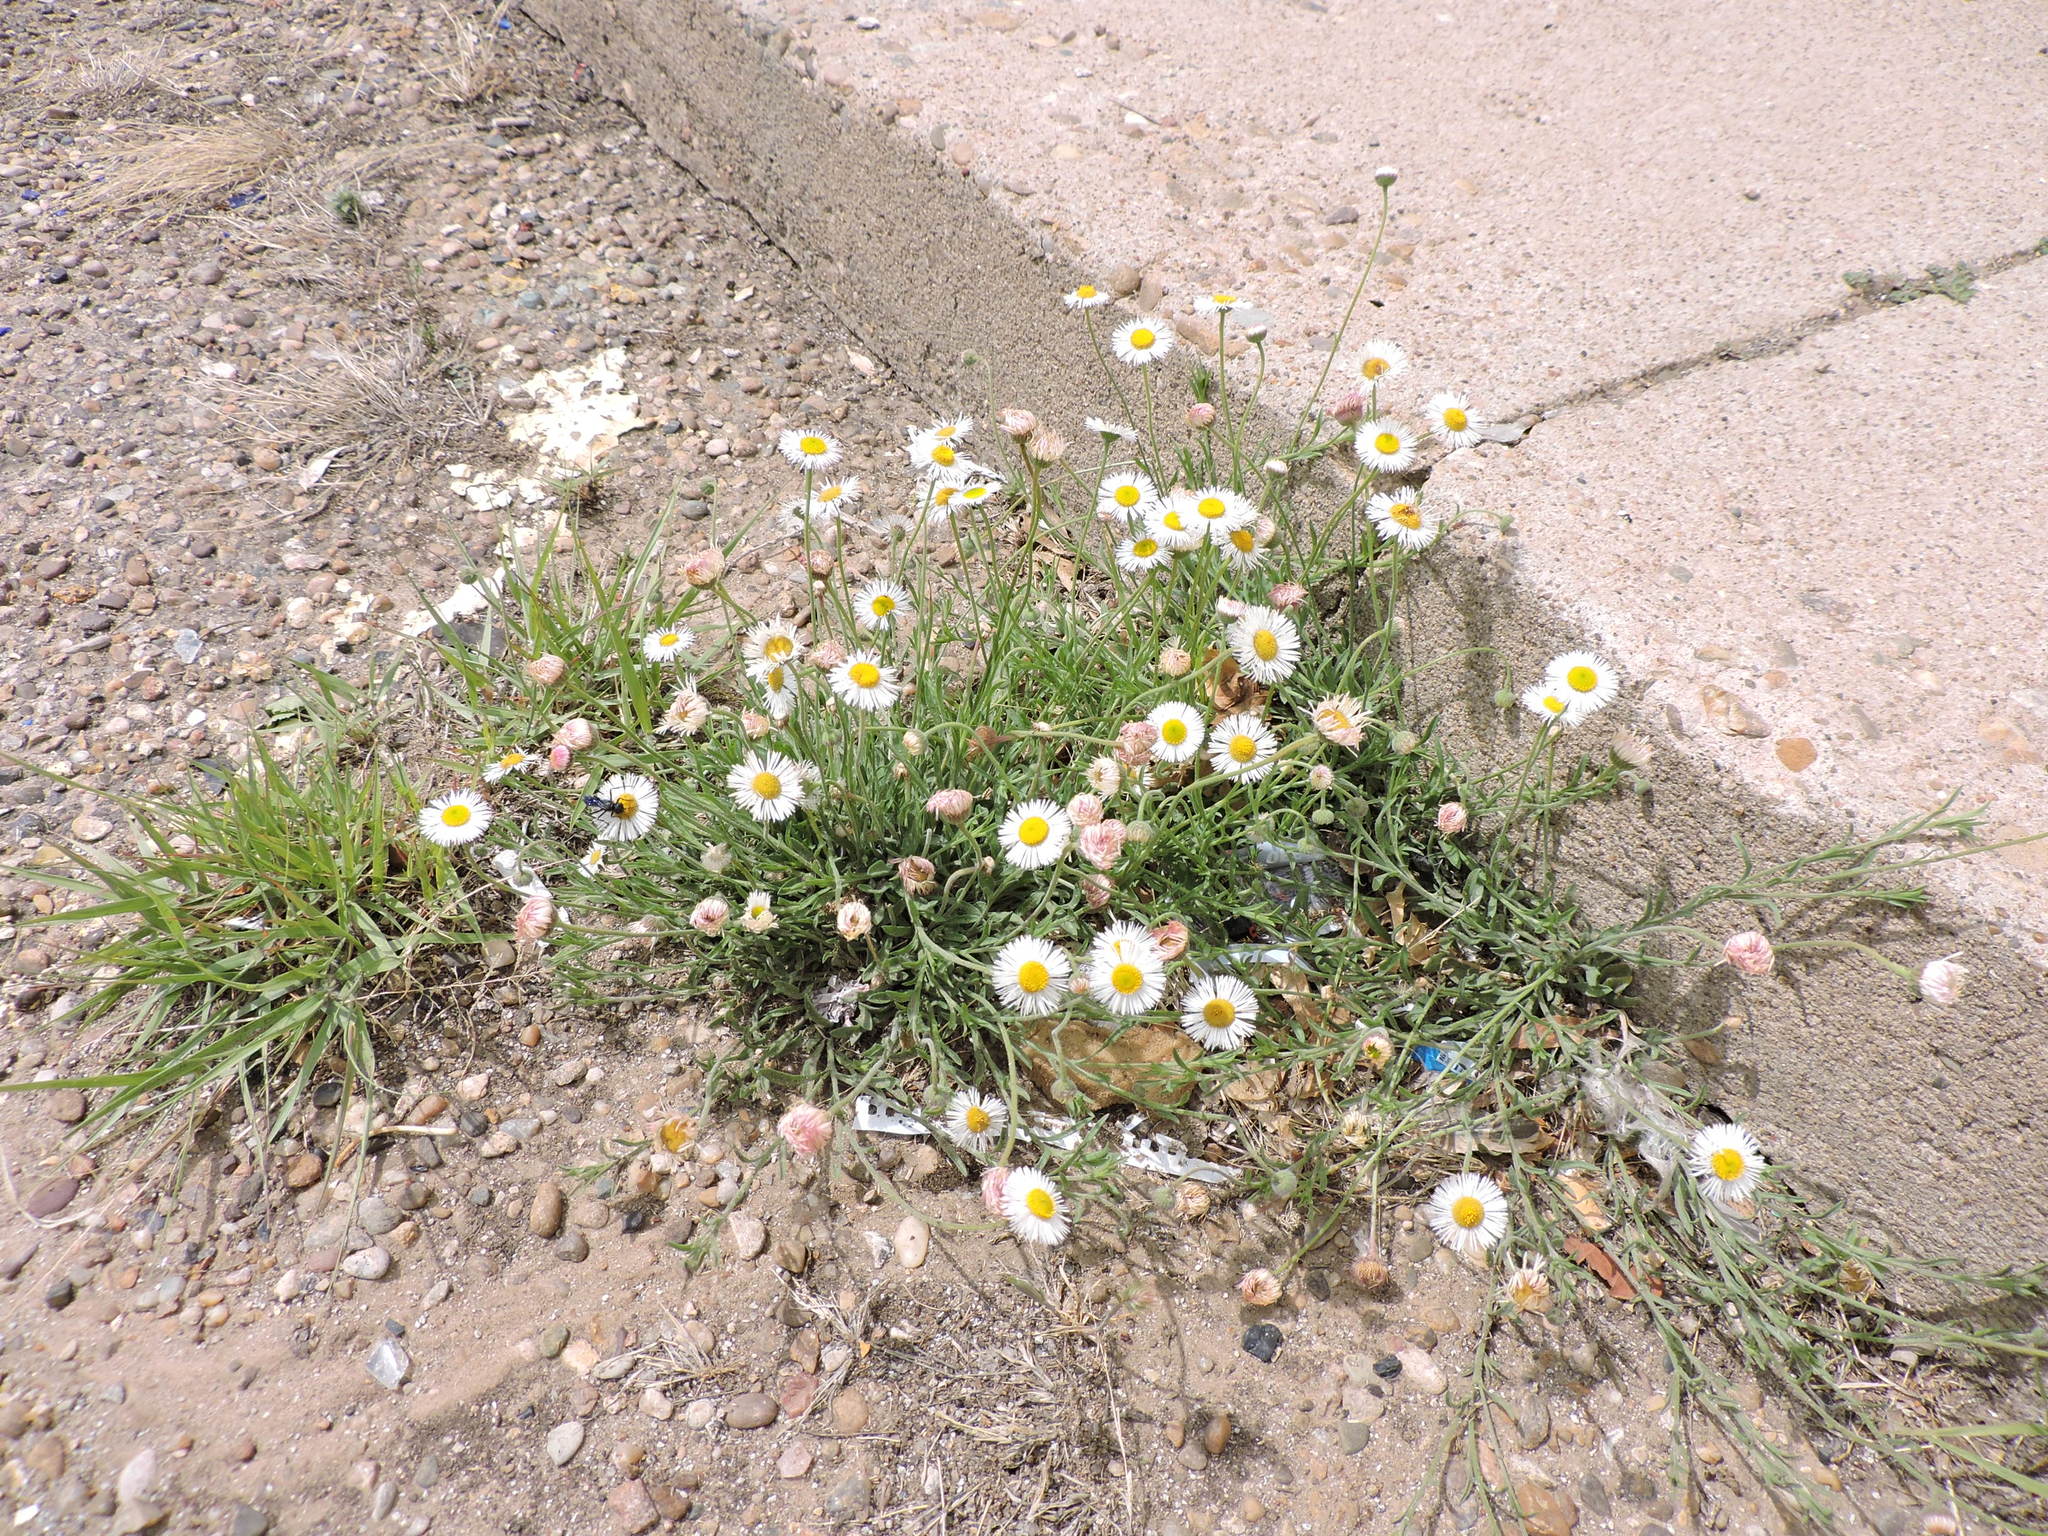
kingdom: Plantae
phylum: Tracheophyta
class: Magnoliopsida
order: Asterales
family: Asteraceae
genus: Erigeron
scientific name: Erigeron modestus
